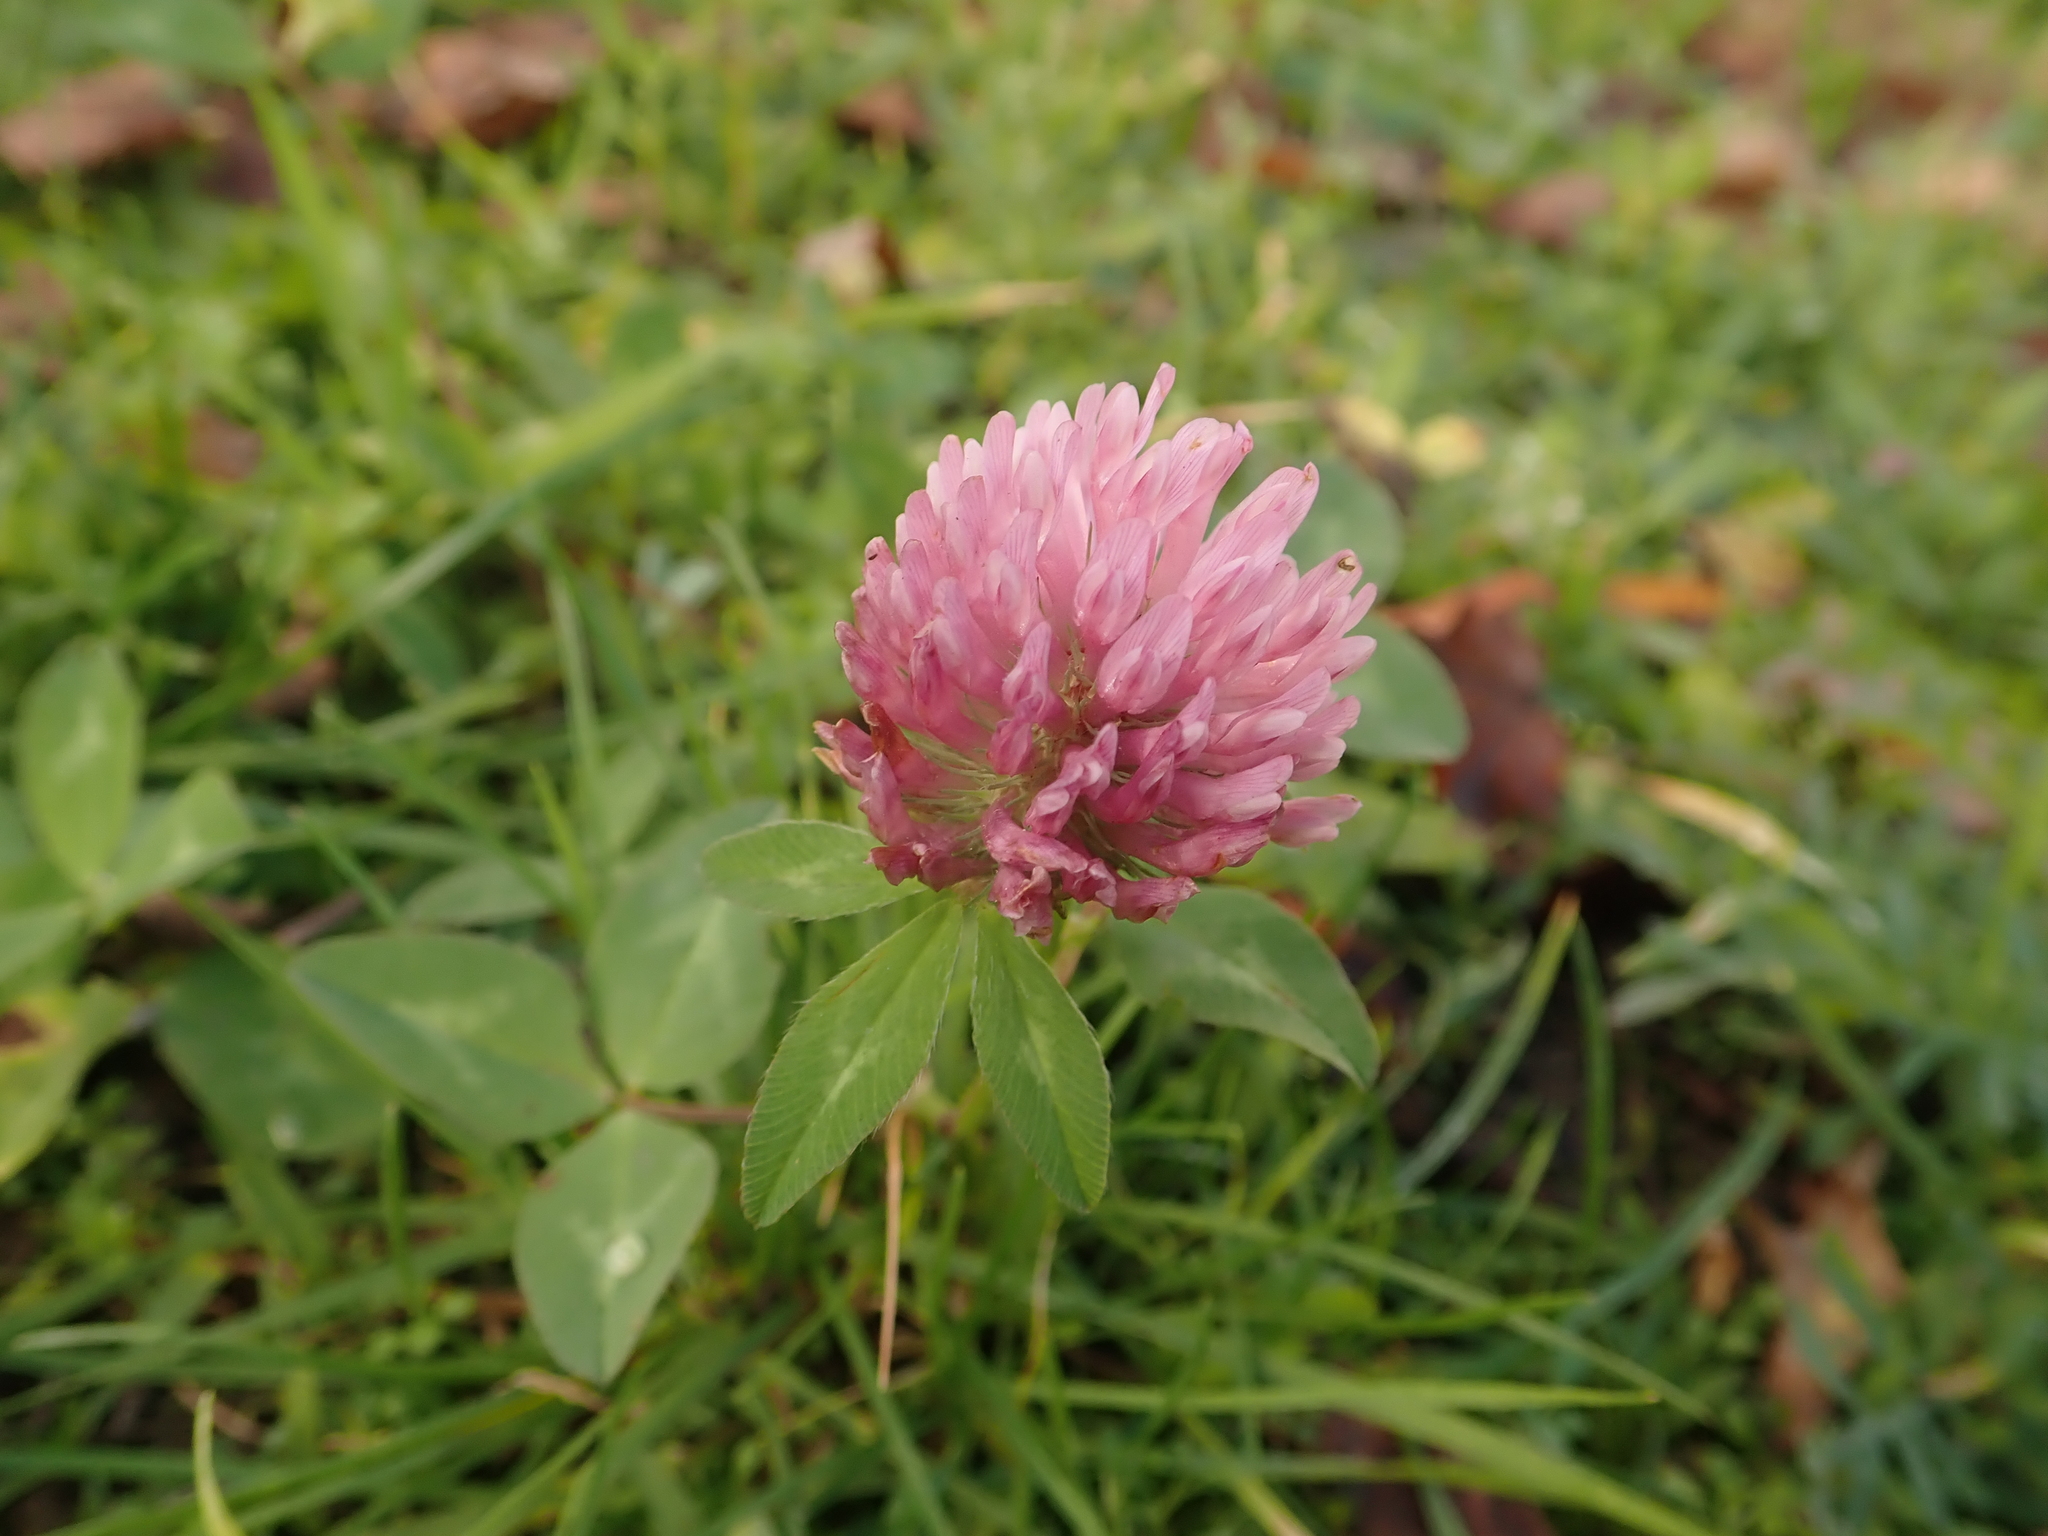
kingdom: Plantae
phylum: Tracheophyta
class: Magnoliopsida
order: Fabales
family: Fabaceae
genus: Trifolium
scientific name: Trifolium pratense
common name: Red clover
